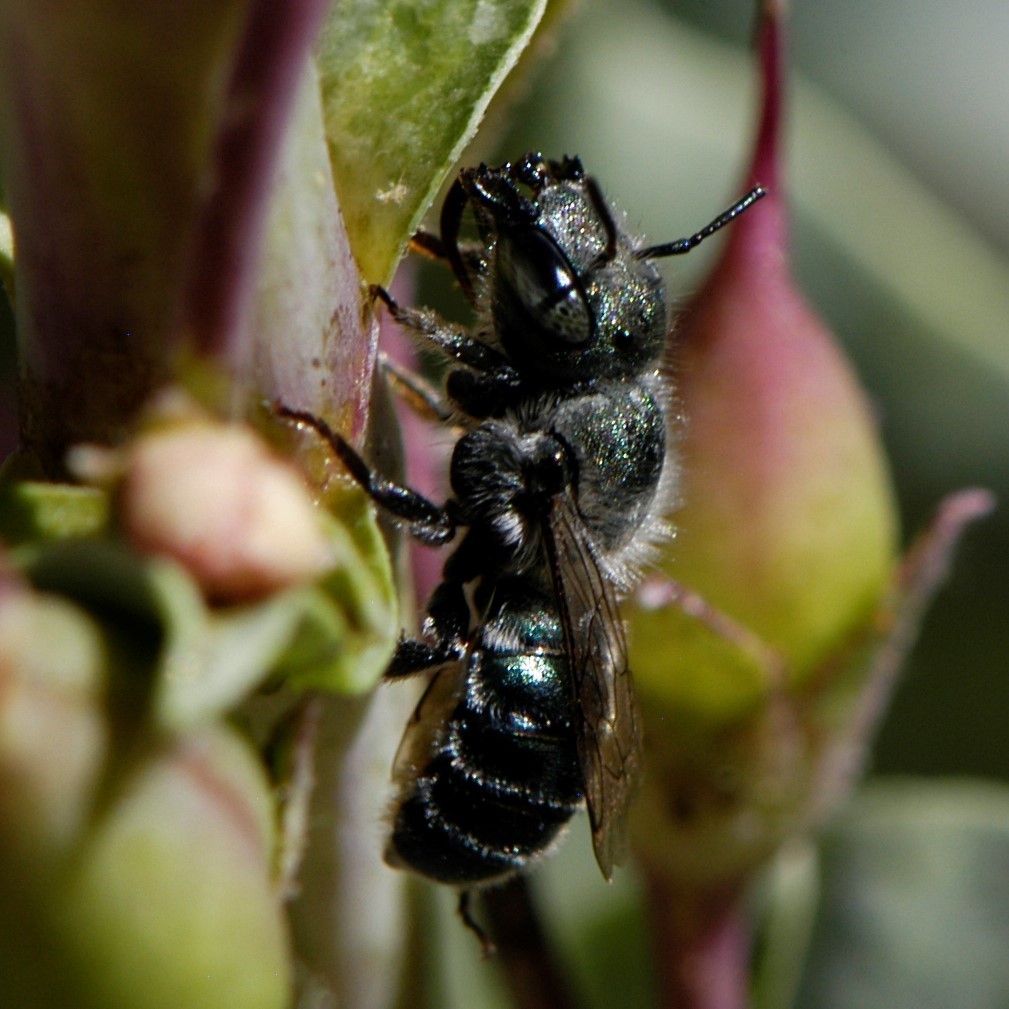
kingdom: Animalia
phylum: Arthropoda
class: Insecta
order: Hymenoptera
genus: Melanosmia
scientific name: Melanosmia
